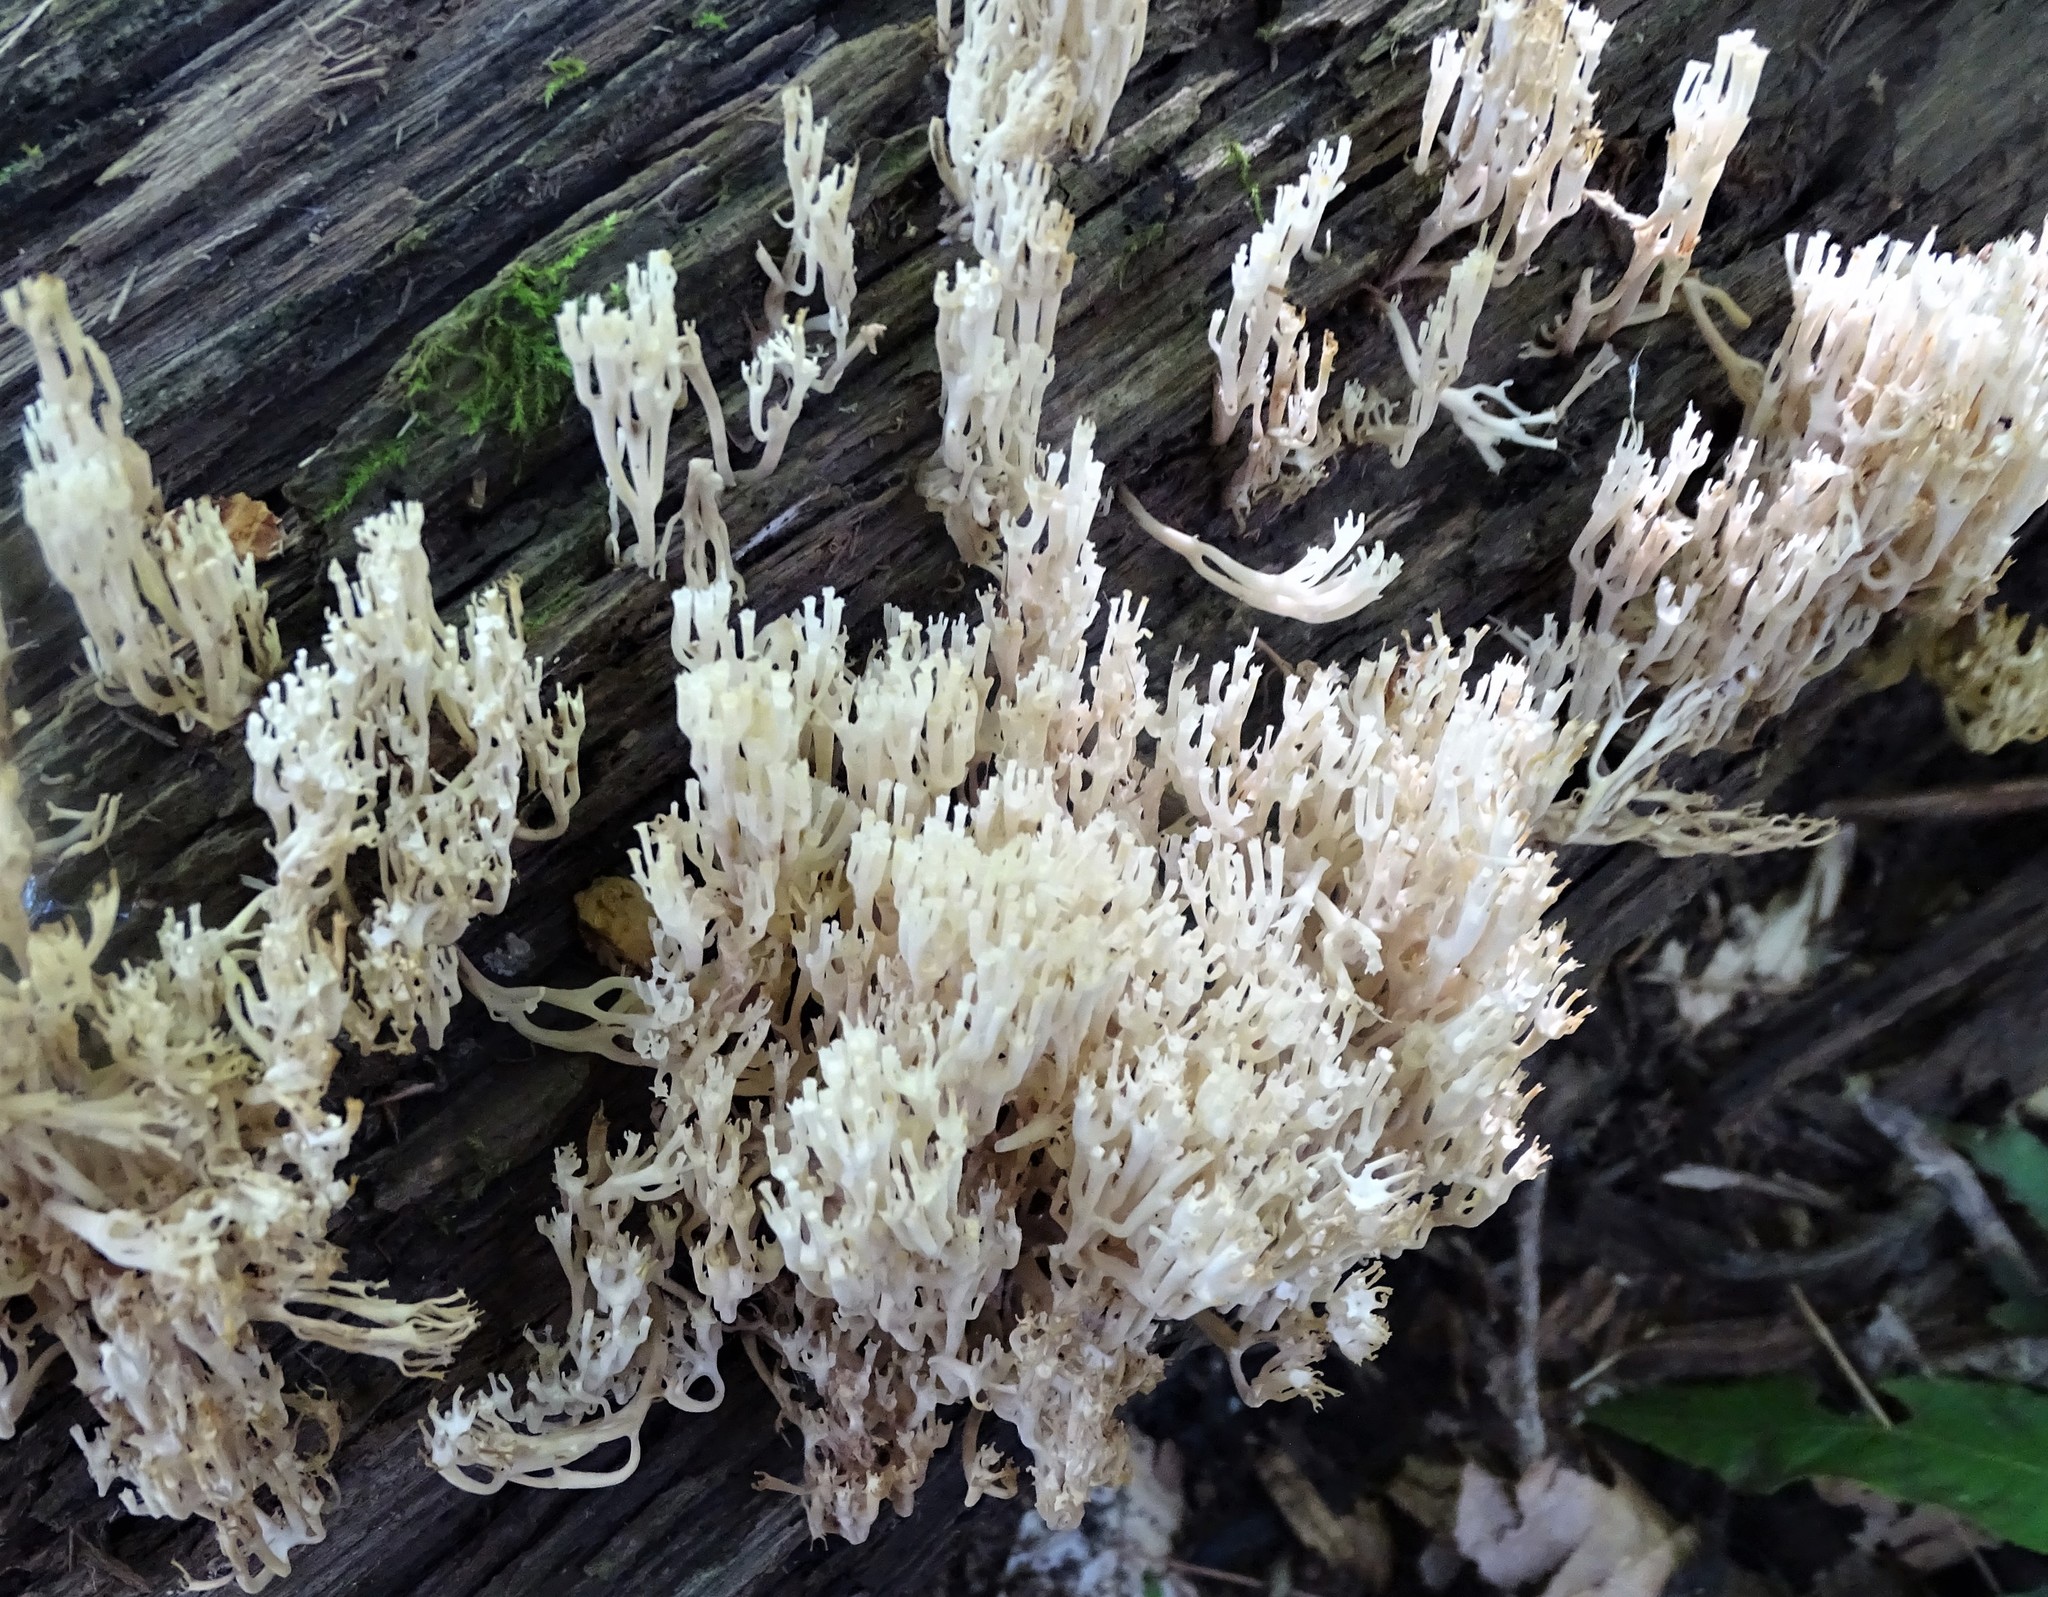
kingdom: Fungi
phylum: Basidiomycota
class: Agaricomycetes
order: Russulales
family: Auriscalpiaceae
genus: Artomyces
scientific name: Artomyces pyxidatus
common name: Crown-tipped coral fungus
